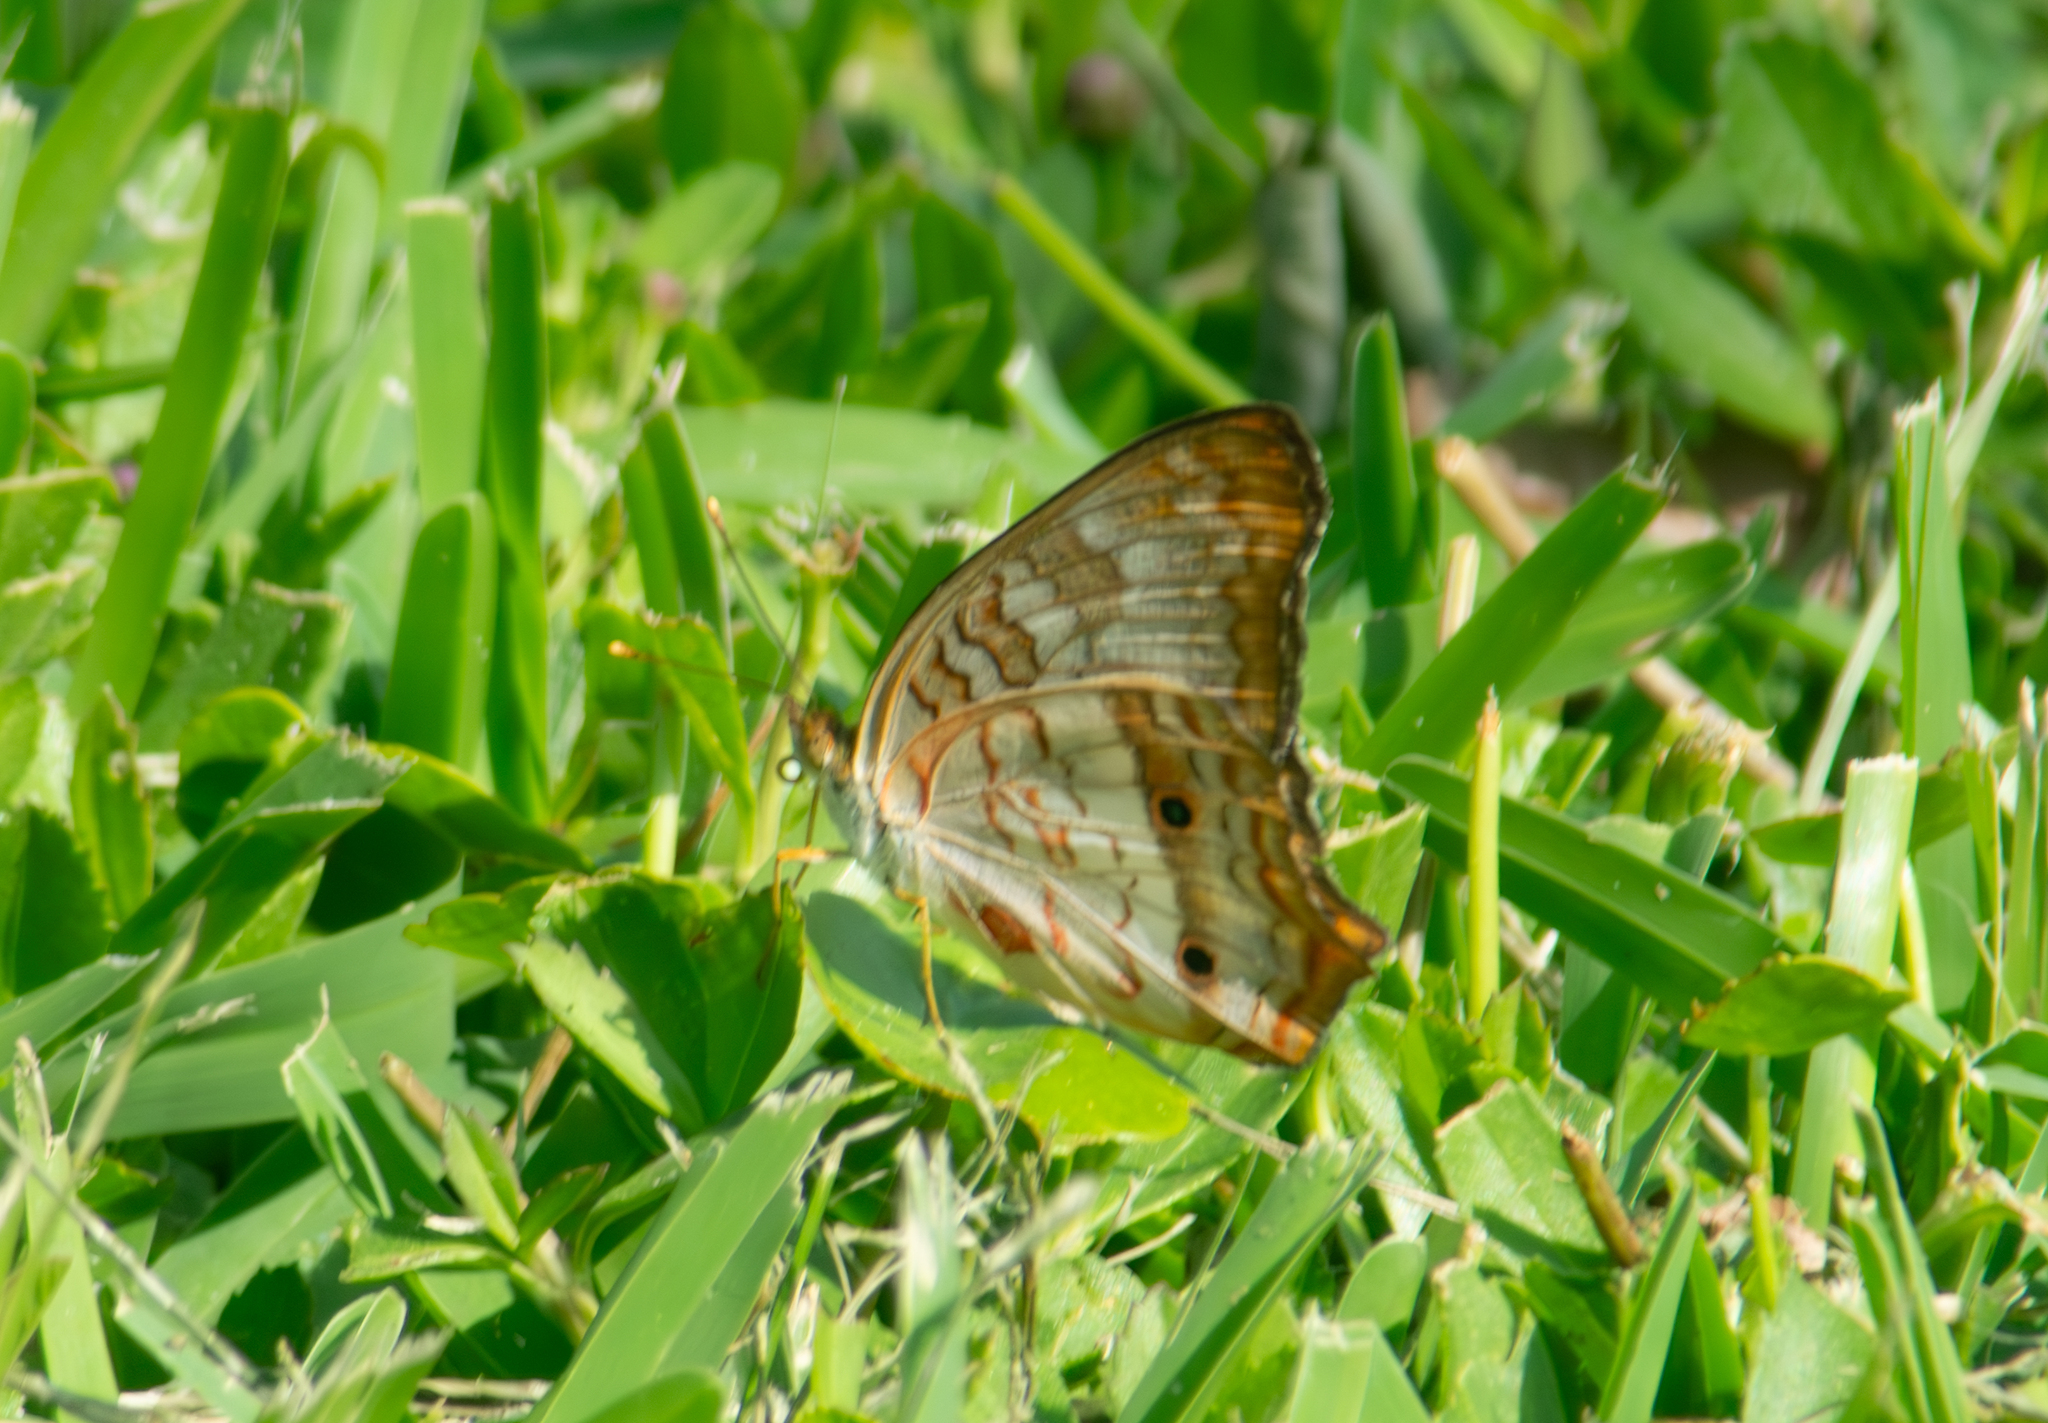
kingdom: Animalia
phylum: Arthropoda
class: Insecta
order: Lepidoptera
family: Nymphalidae
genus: Anartia
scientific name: Anartia jatrophae
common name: White peacock
